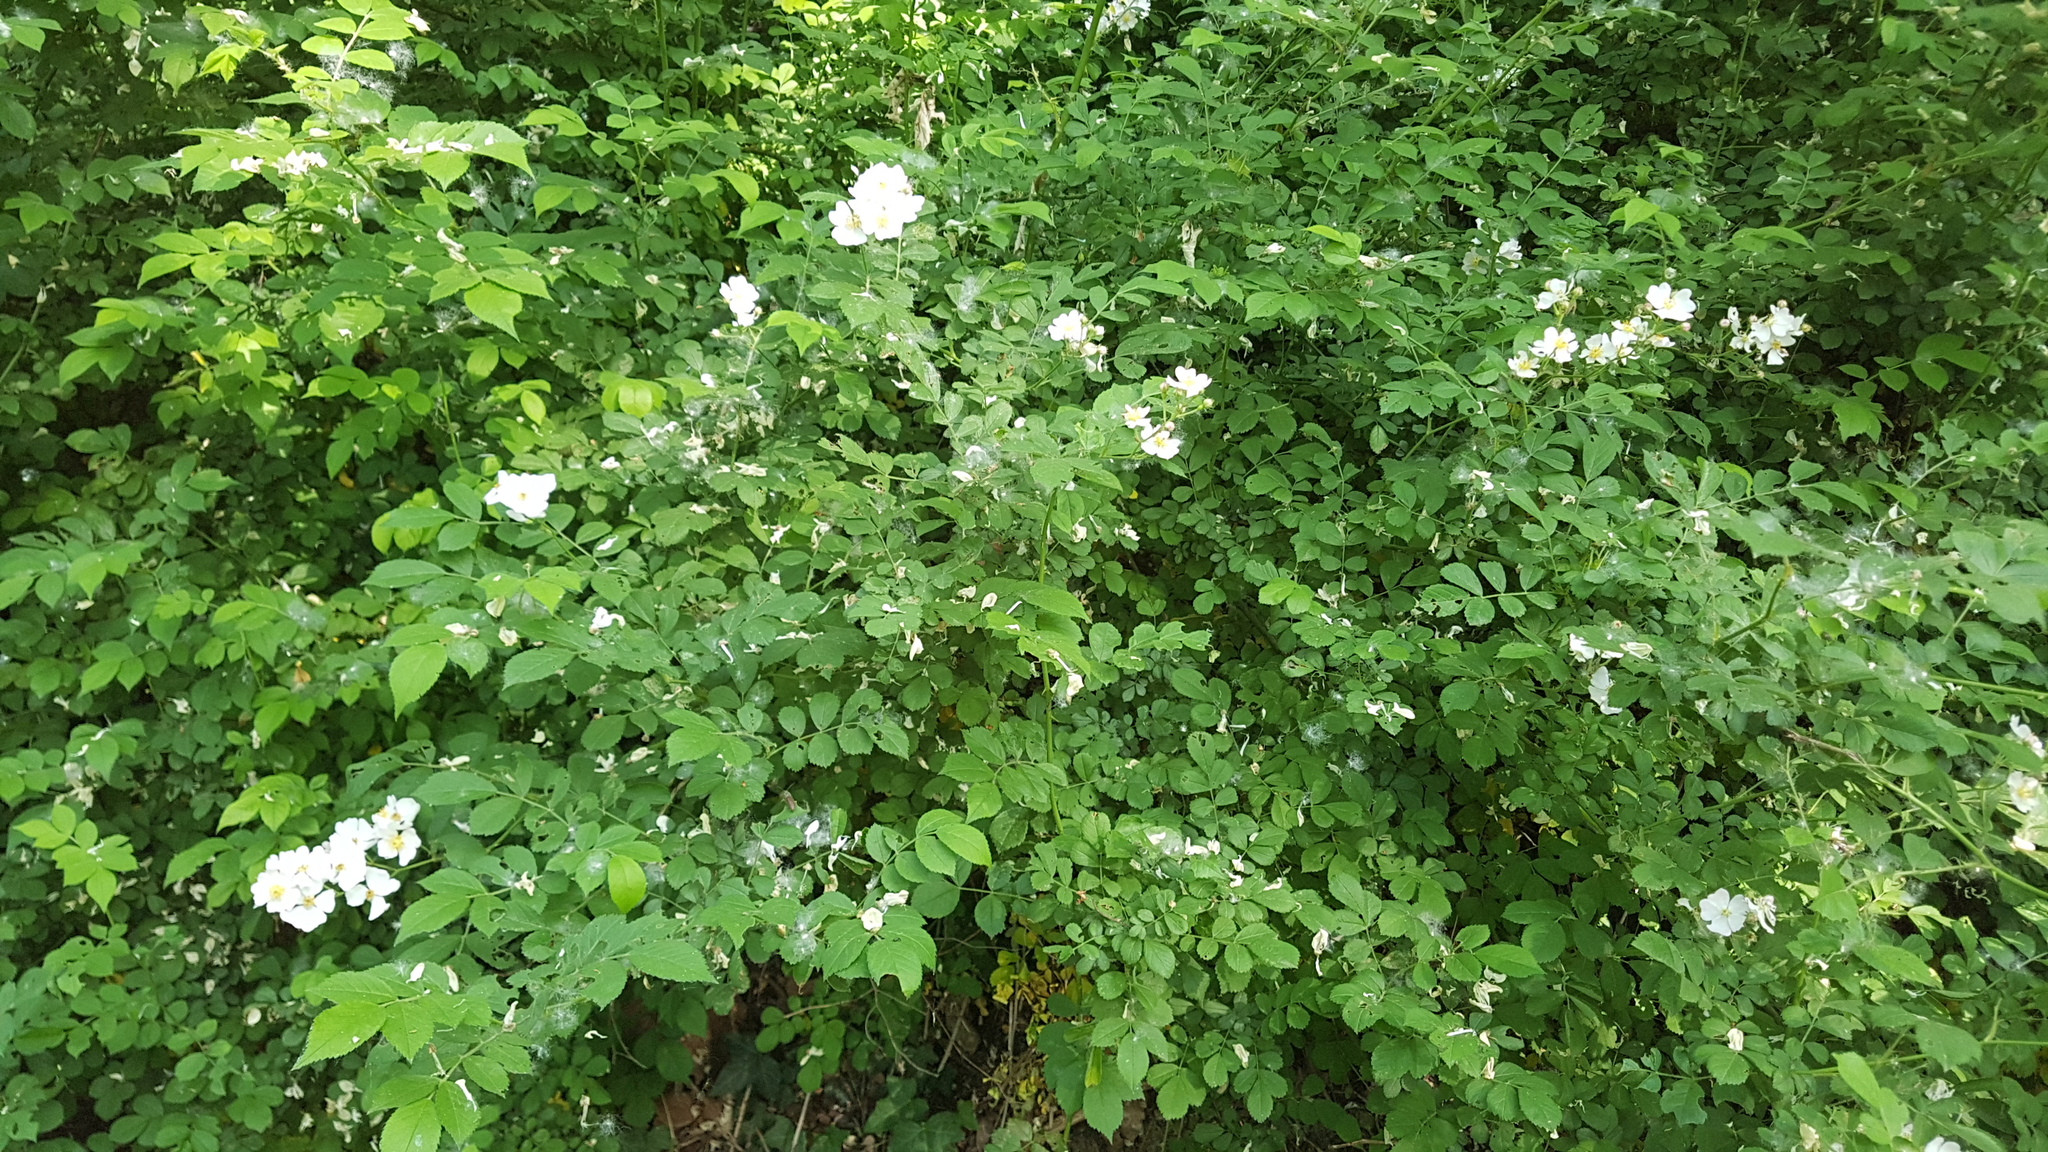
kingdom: Plantae
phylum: Tracheophyta
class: Magnoliopsida
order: Rosales
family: Rosaceae
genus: Rosa
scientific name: Rosa multiflora
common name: Multiflora rose
